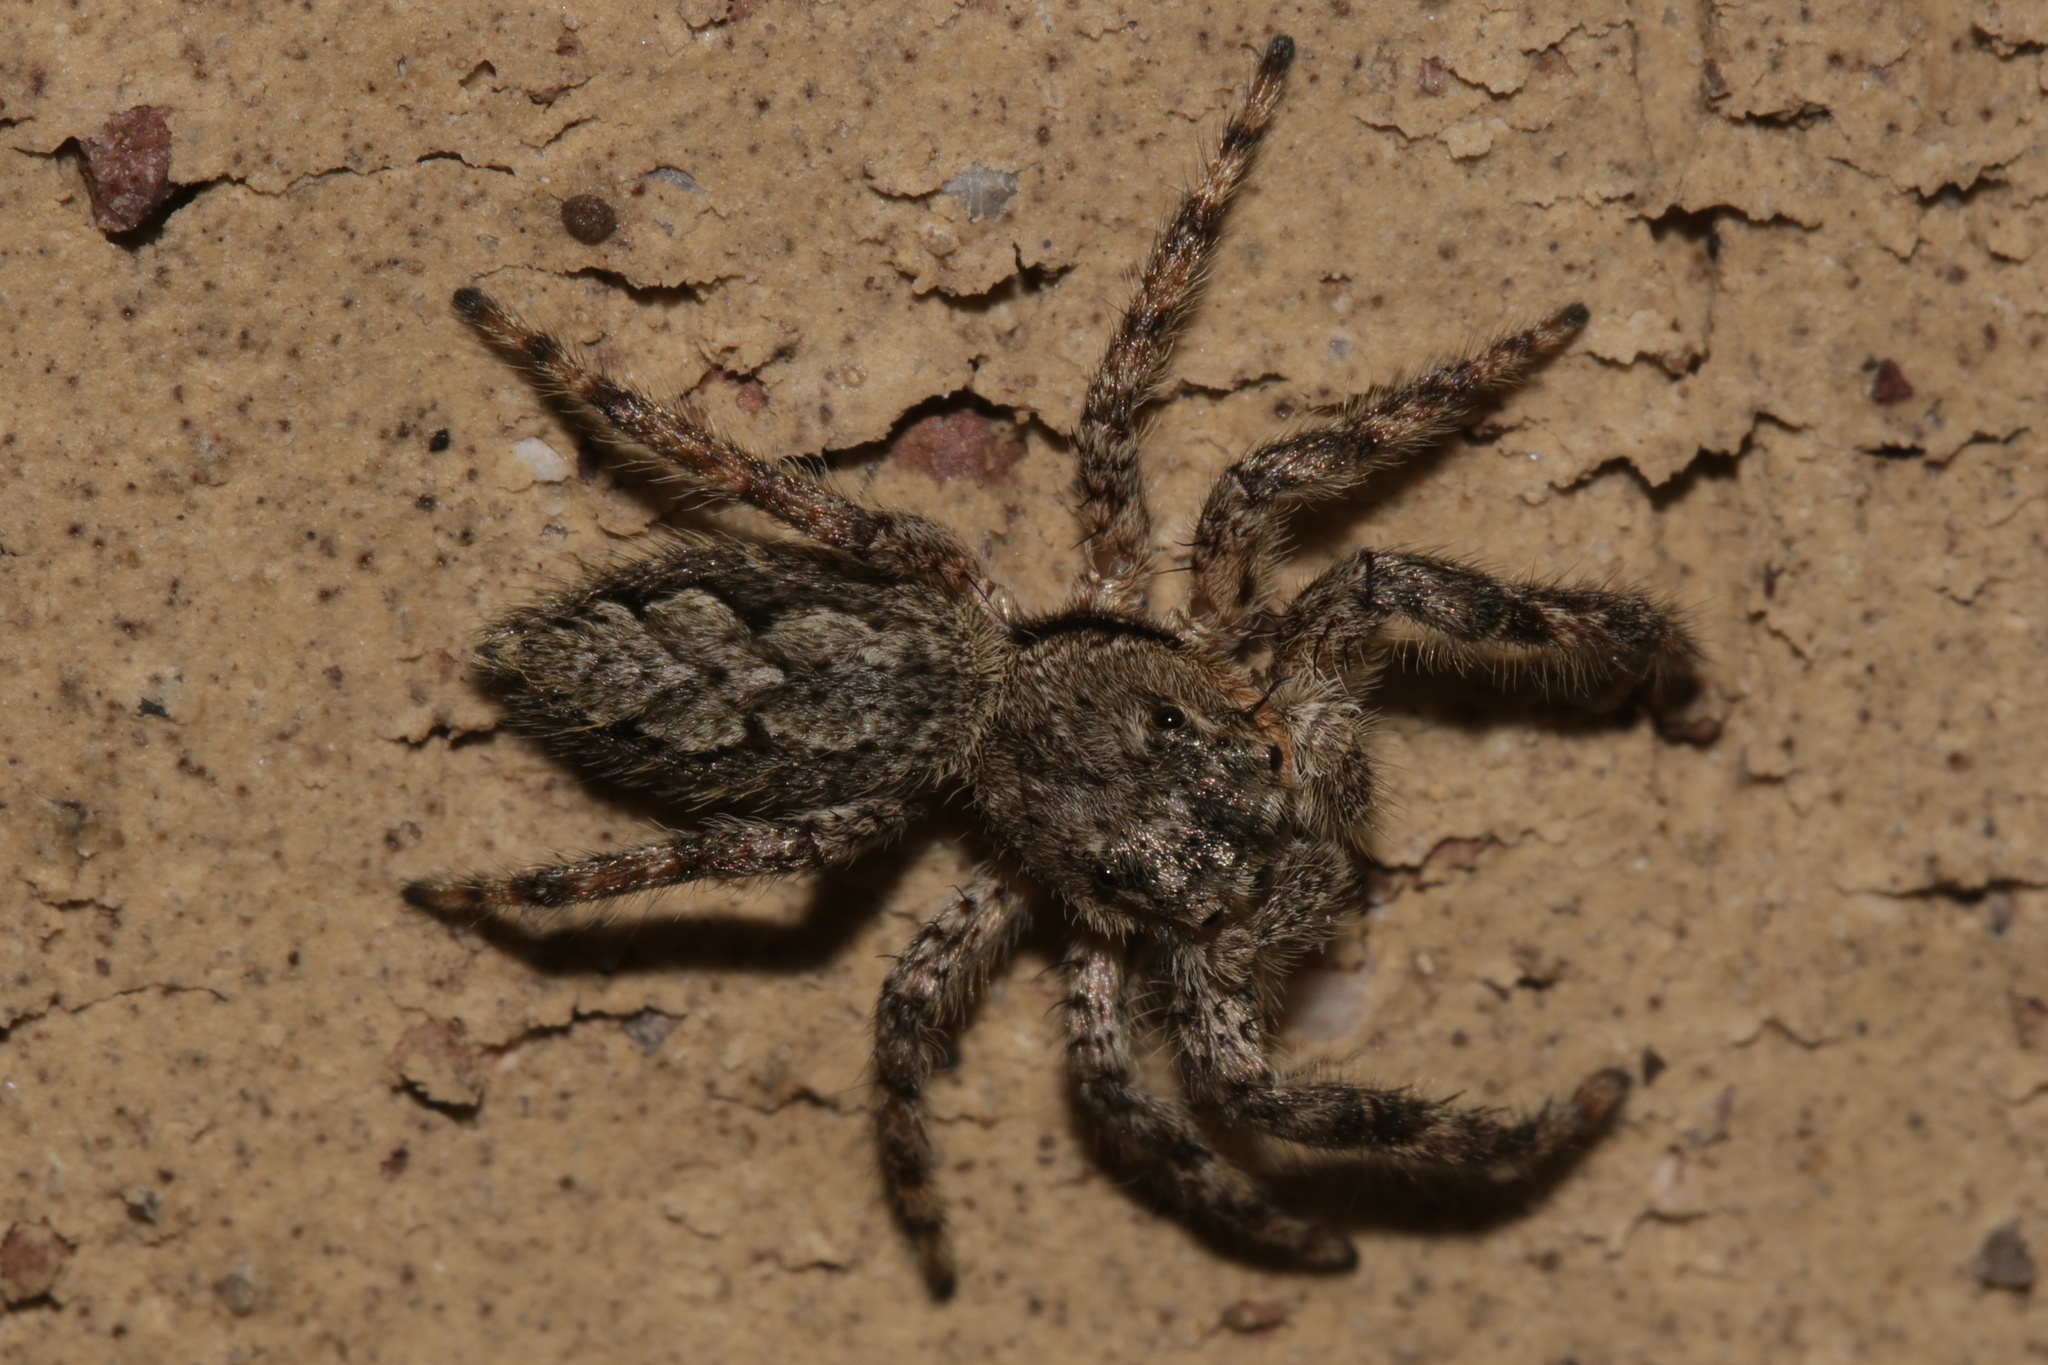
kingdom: Animalia
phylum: Arthropoda
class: Arachnida
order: Araneae
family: Salticidae
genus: Platycryptus
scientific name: Platycryptus undatus
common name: Tan jumping spider
